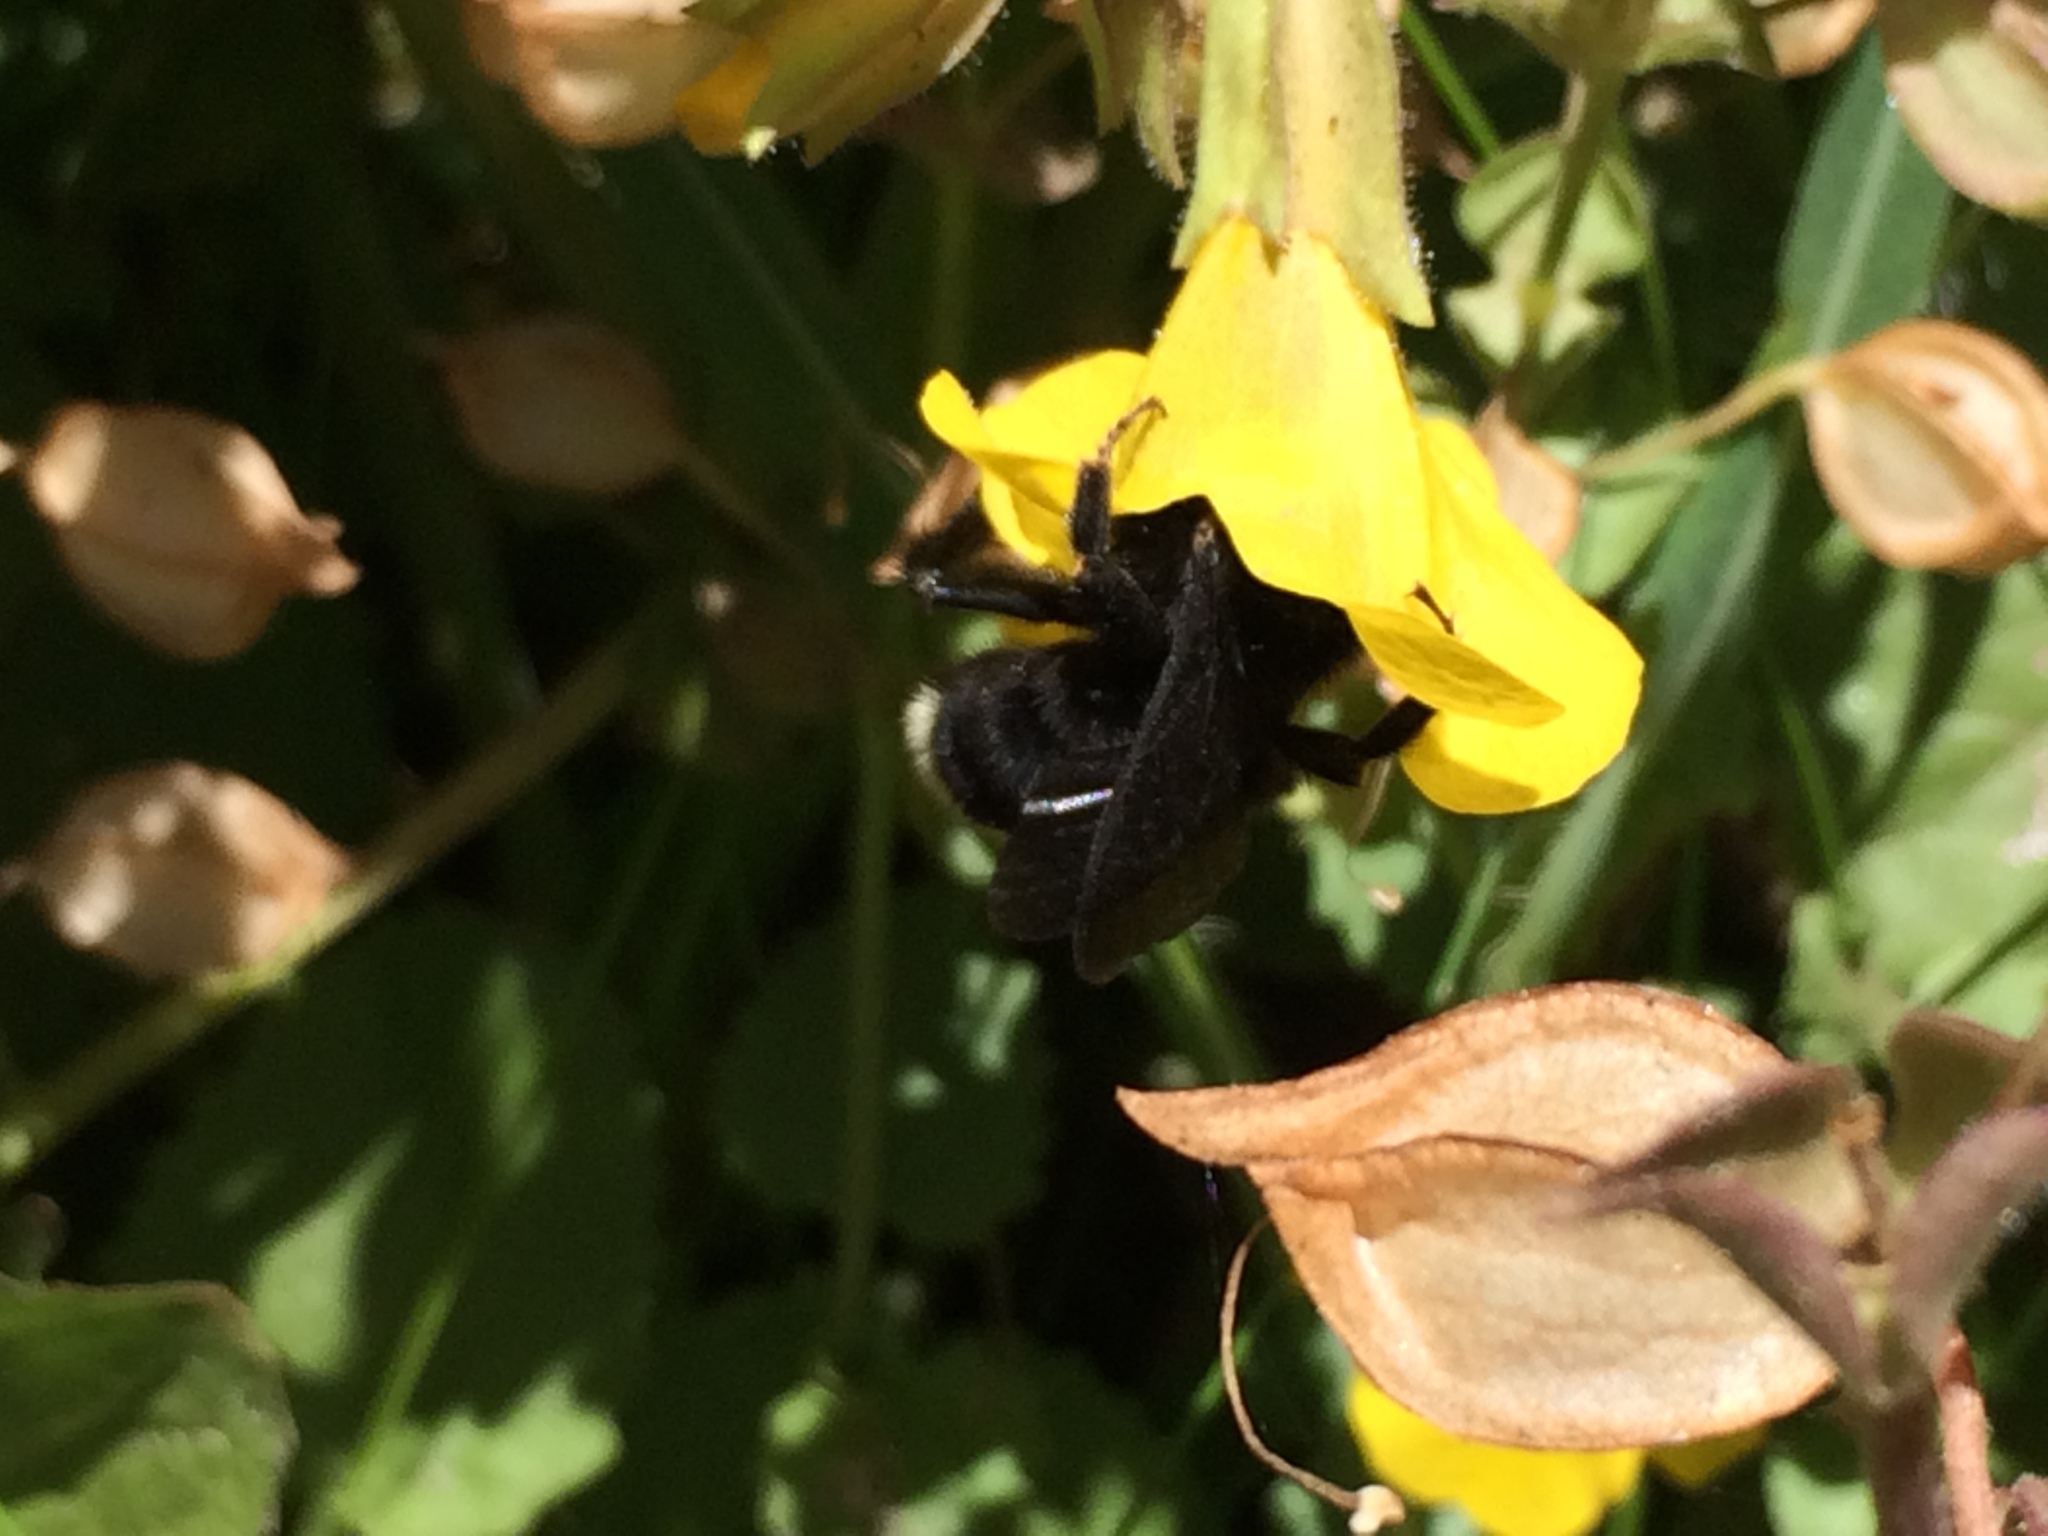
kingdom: Animalia
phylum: Arthropoda
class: Insecta
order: Hymenoptera
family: Apidae
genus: Bombus
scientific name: Bombus californicus
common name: California bumble bee
